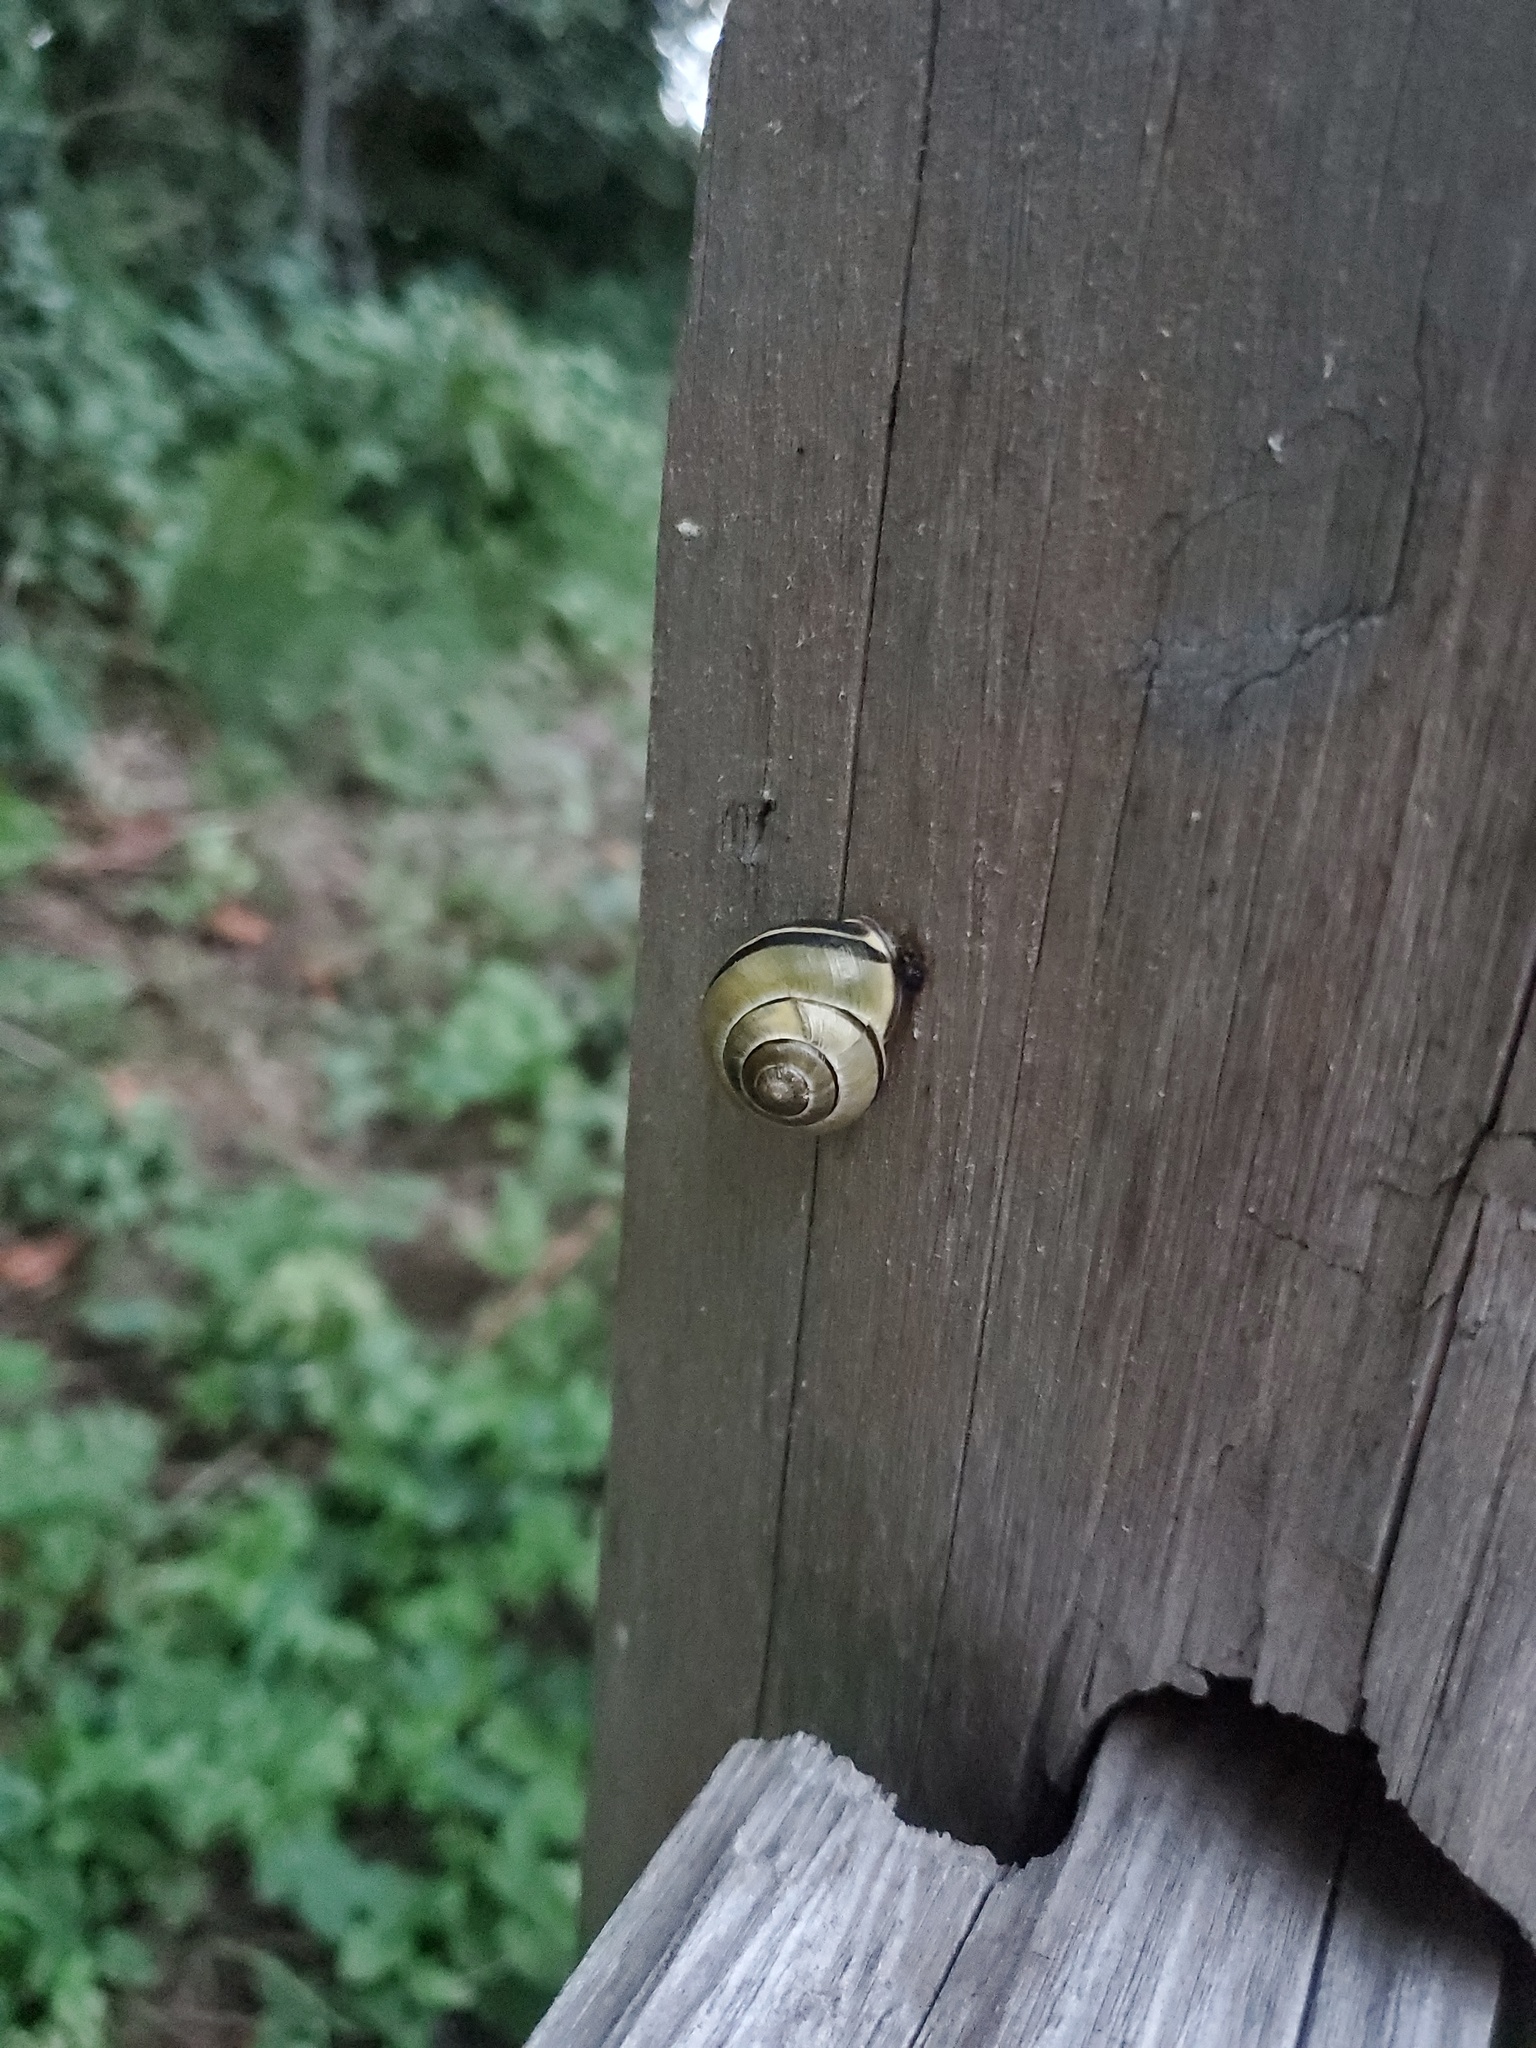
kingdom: Animalia
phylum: Mollusca
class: Gastropoda
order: Stylommatophora
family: Helicidae
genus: Cepaea
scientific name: Cepaea nemoralis
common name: Grovesnail
